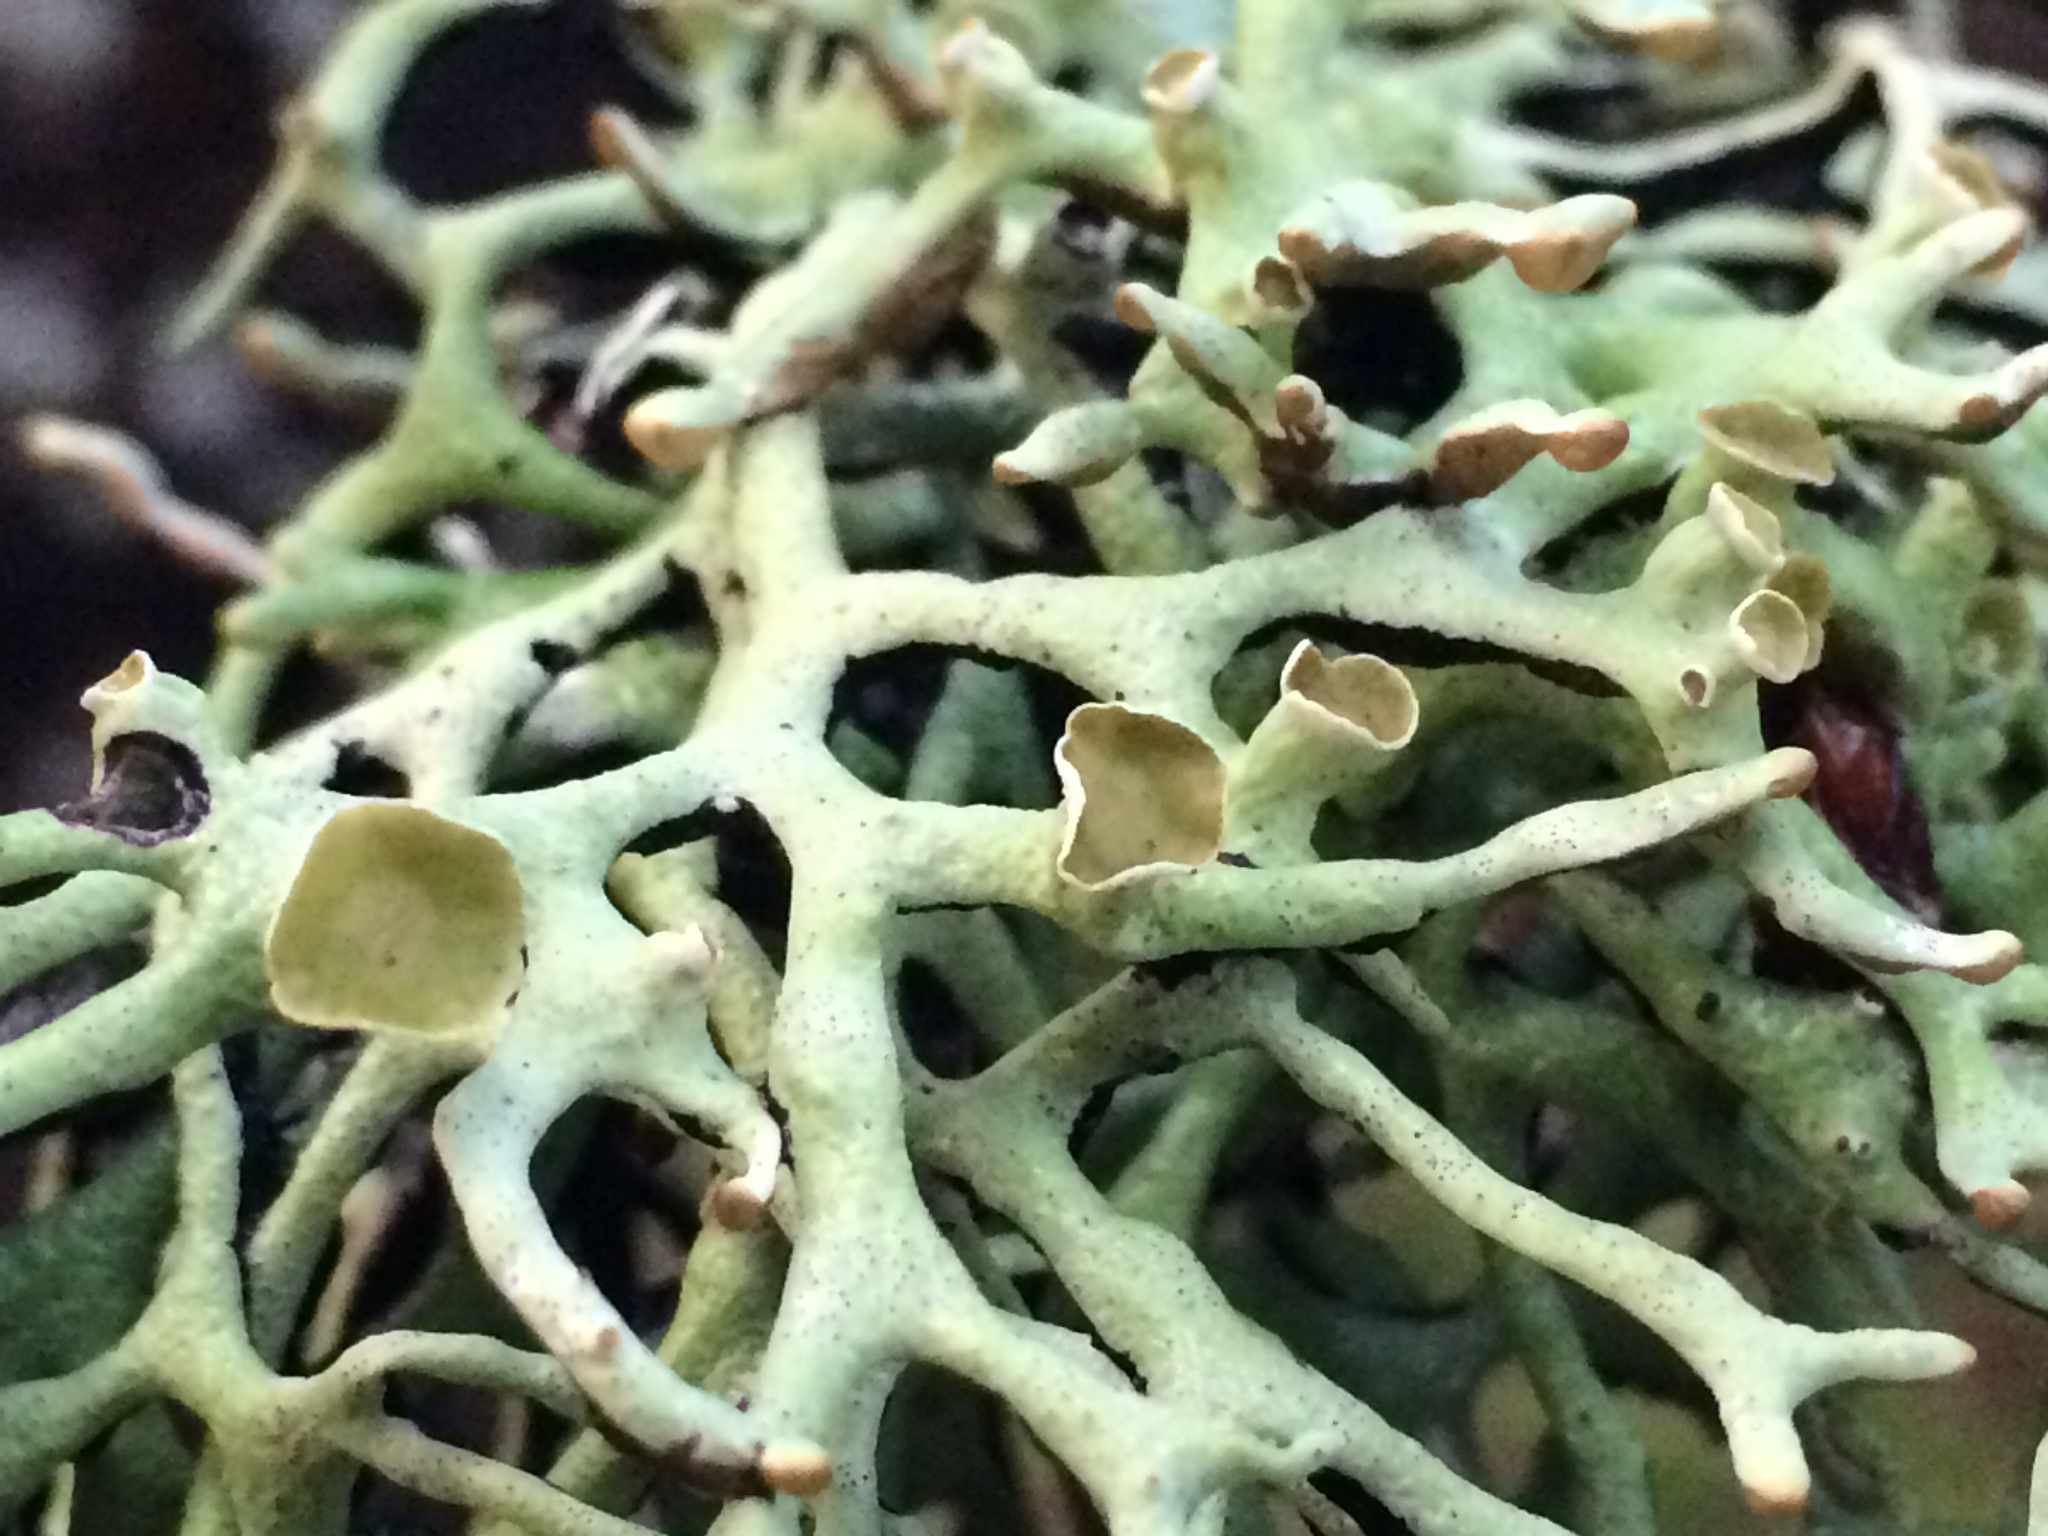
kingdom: Fungi
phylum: Ascomycota
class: Lecanoromycetes
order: Lecanorales
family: Parmeliaceae
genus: Hypogymnia
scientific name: Hypogymnia
